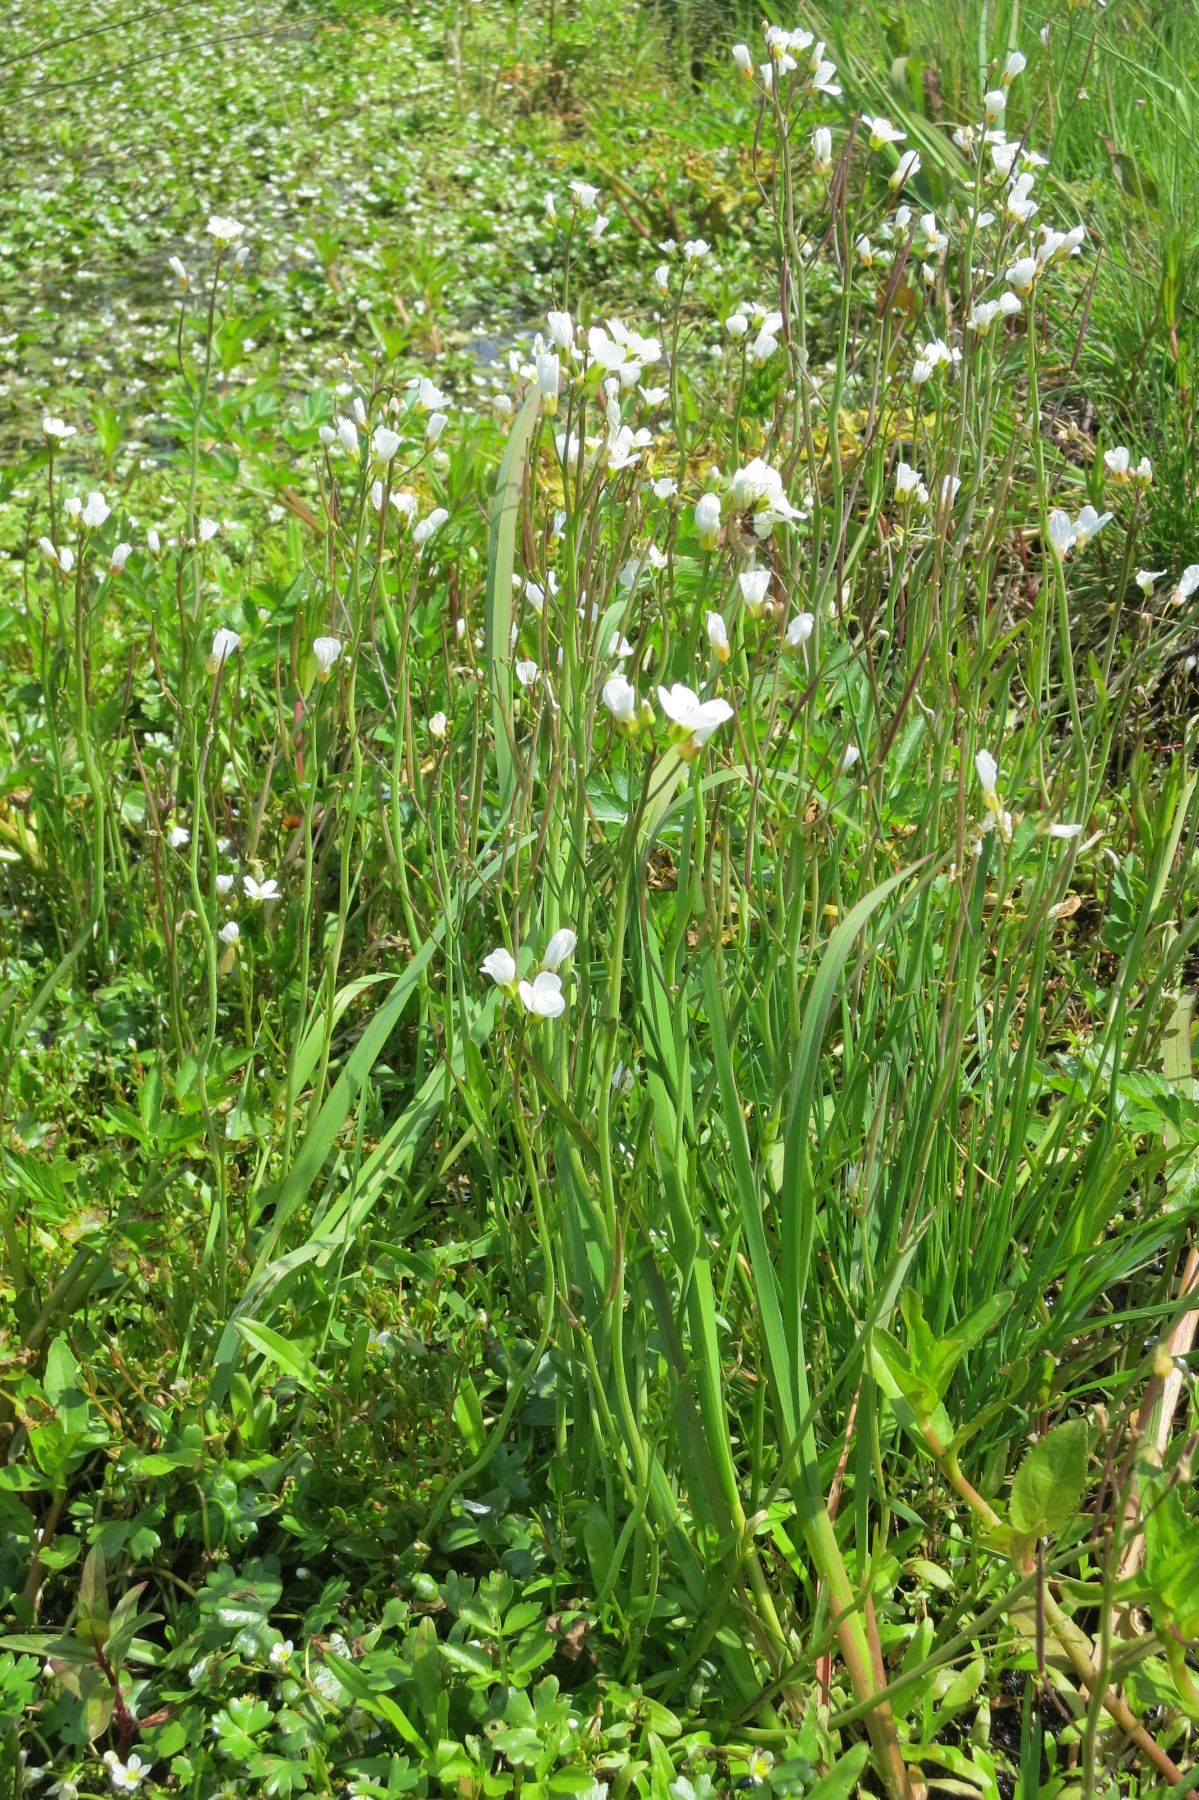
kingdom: Plantae
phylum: Tracheophyta
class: Magnoliopsida
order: Brassicales
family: Brassicaceae
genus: Cardamine
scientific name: Cardamine penduliflora
